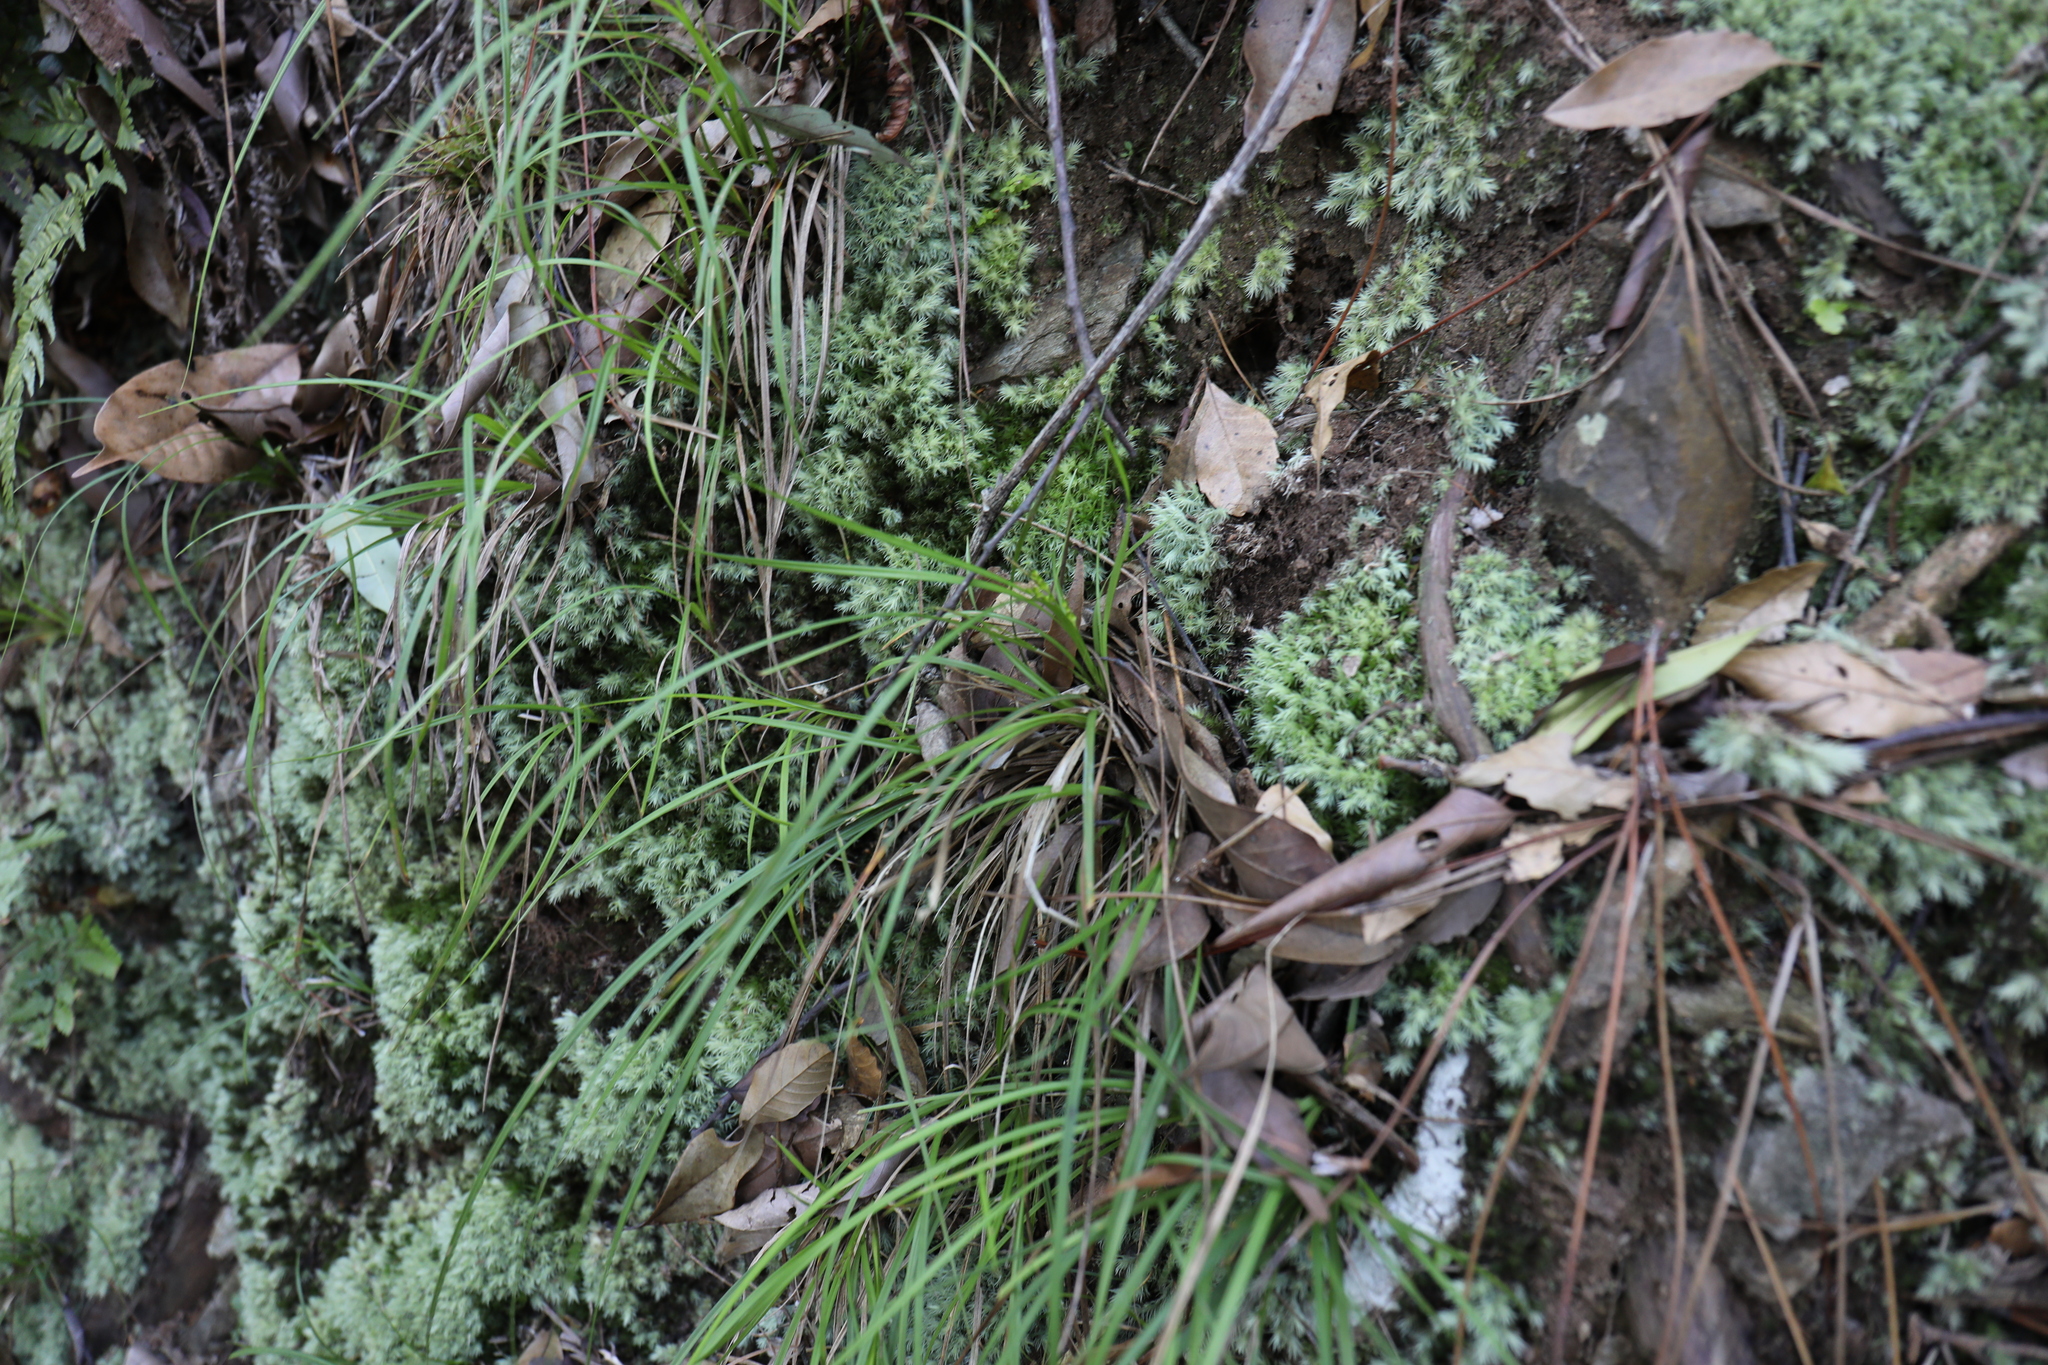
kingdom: Plantae
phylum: Tracheophyta
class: Liliopsida
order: Poales
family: Cyperaceae
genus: Carex
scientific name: Carex rhynchachaenium
